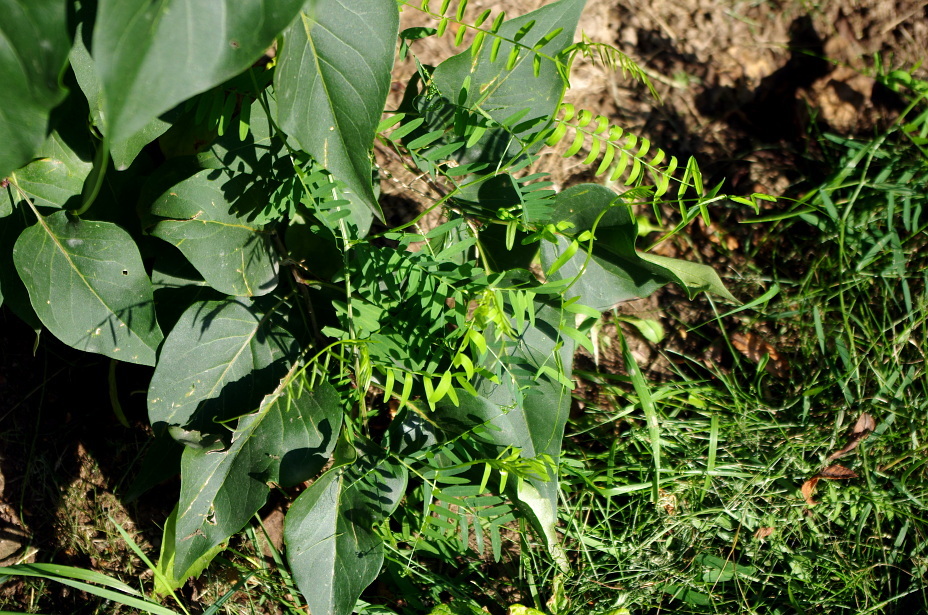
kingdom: Plantae
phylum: Tracheophyta
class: Magnoliopsida
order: Fabales
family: Fabaceae
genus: Vicia
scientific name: Vicia cracca
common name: Bird vetch
